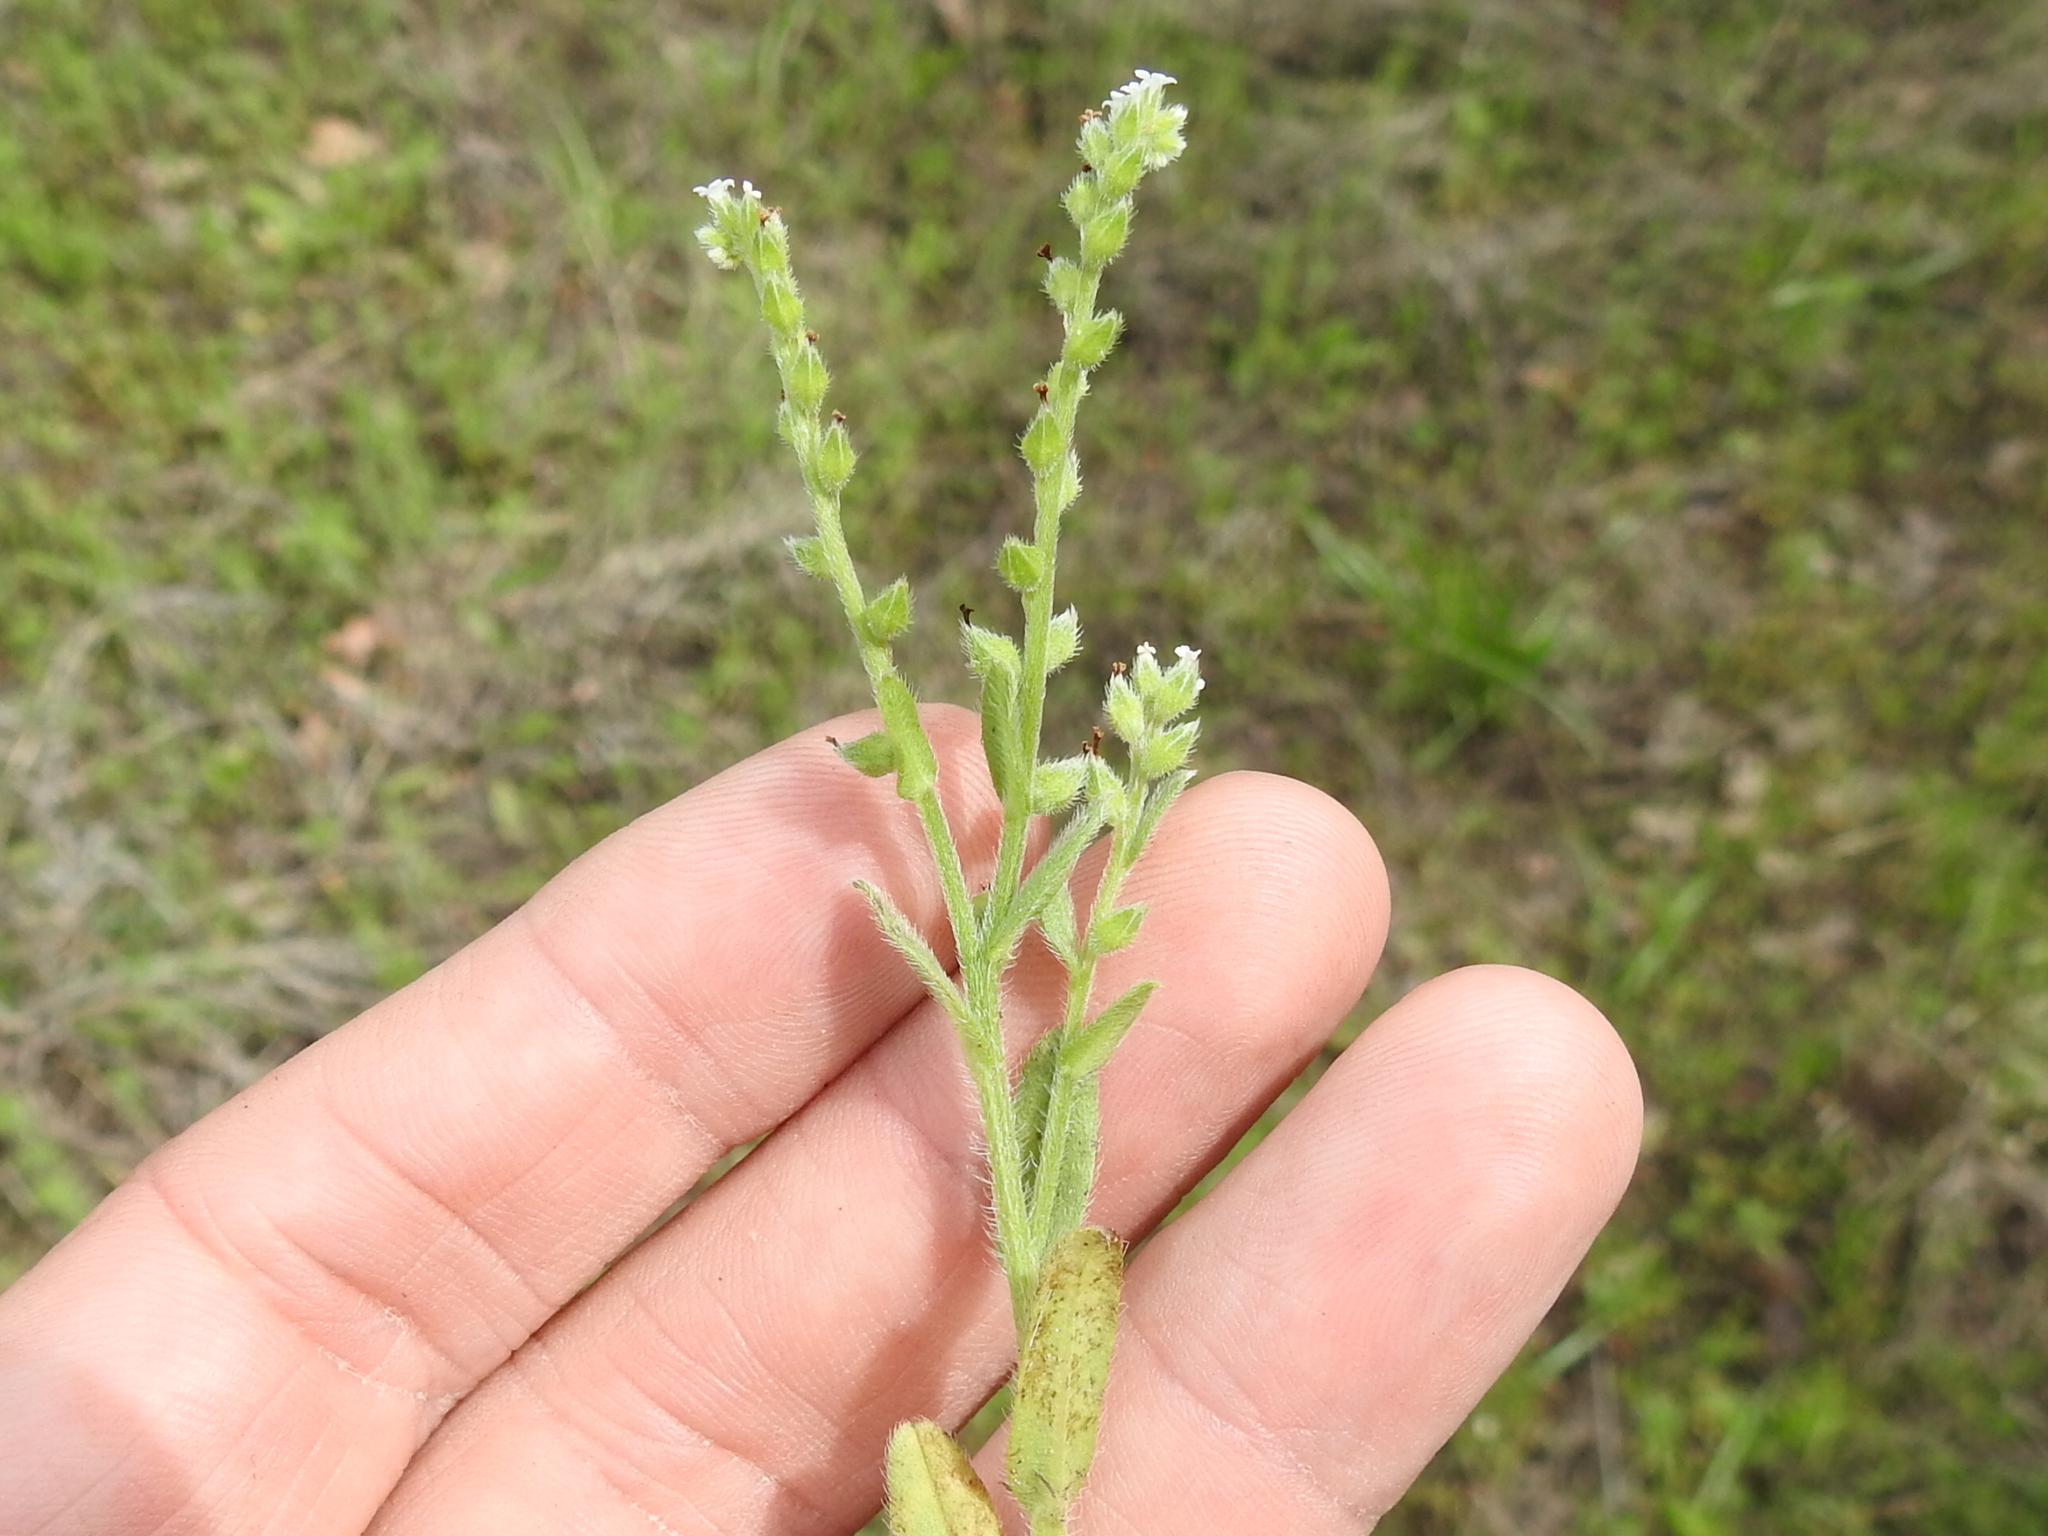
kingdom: Plantae
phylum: Tracheophyta
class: Magnoliopsida
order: Boraginales
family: Boraginaceae
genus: Myosotis
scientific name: Myosotis macrosperma
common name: Large-seed forget-me-not
